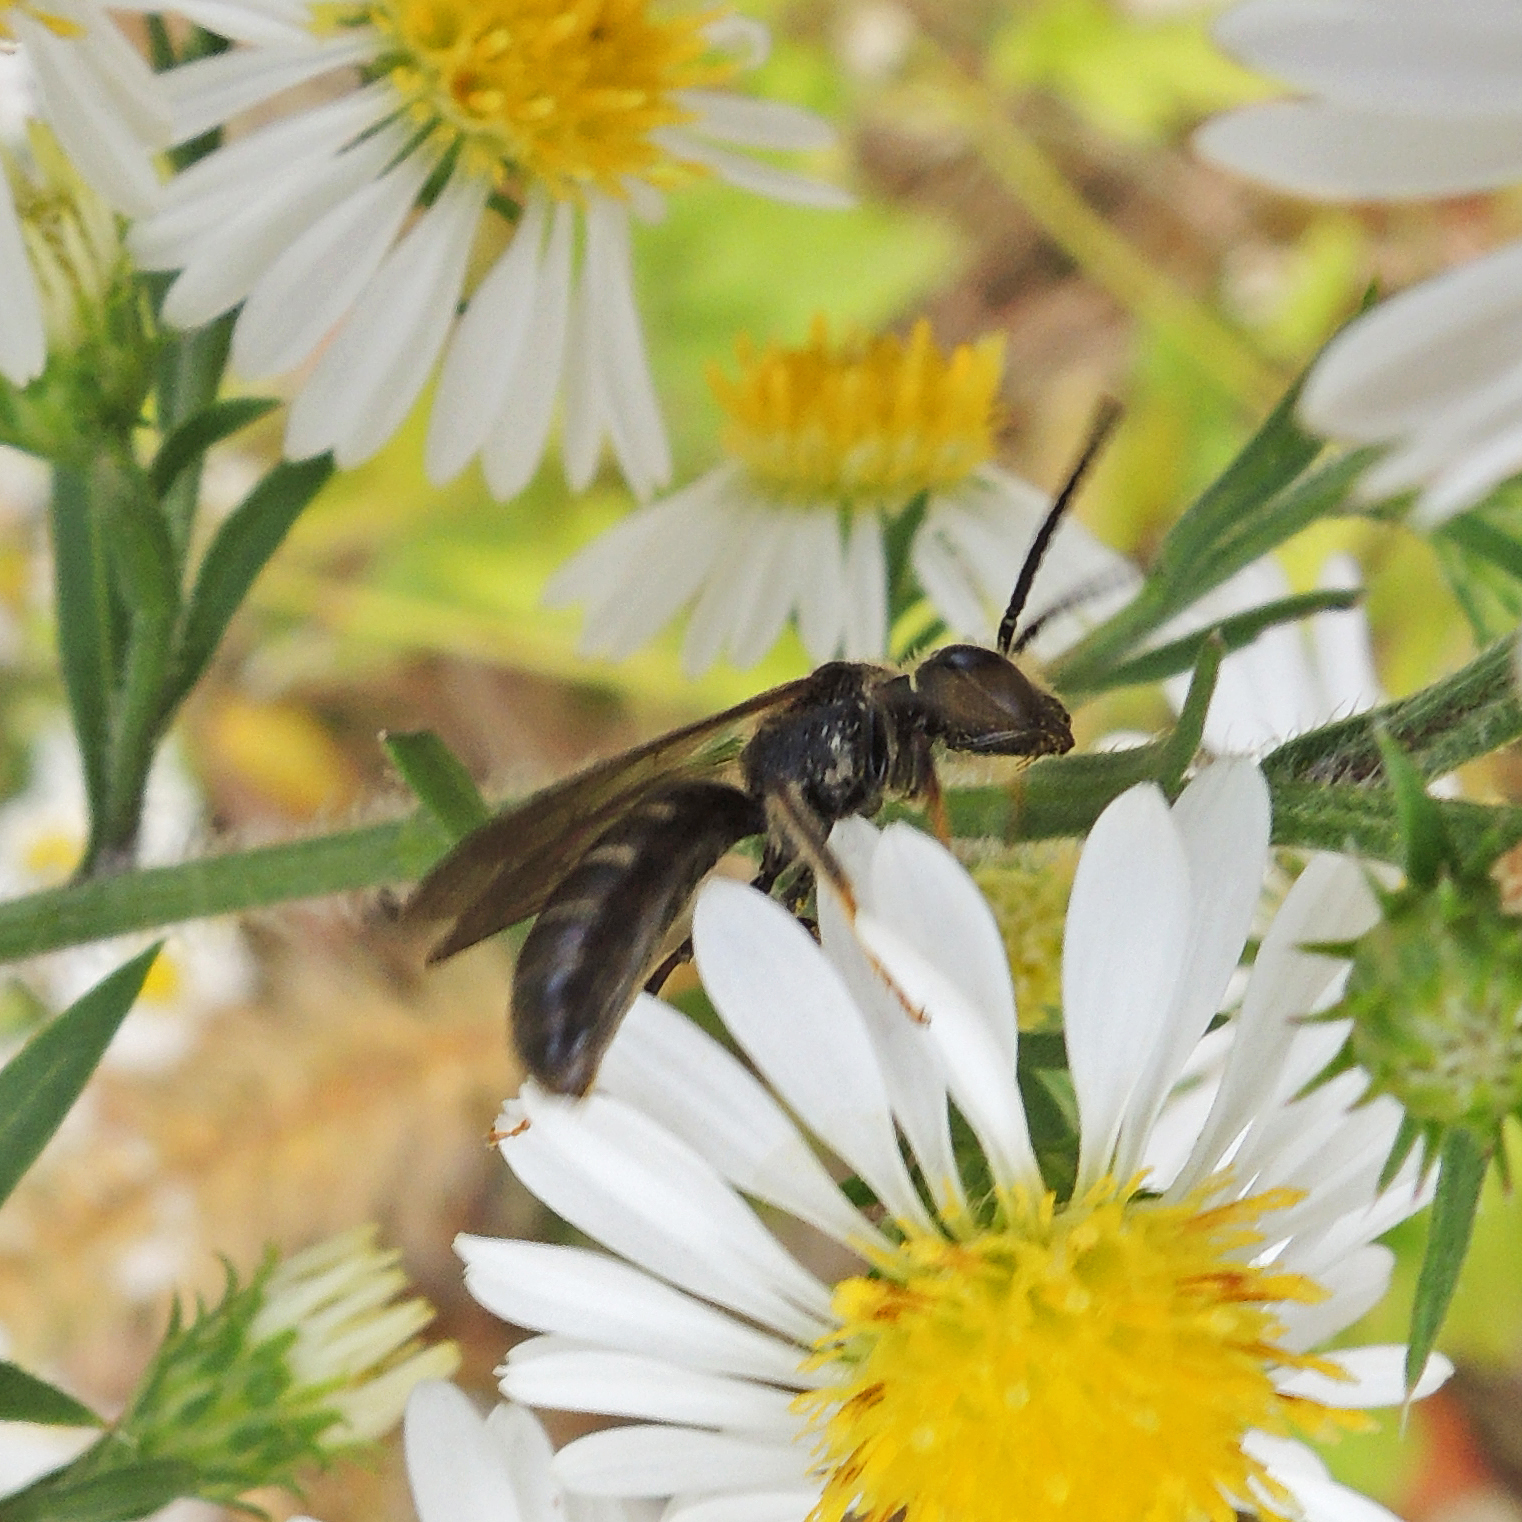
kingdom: Animalia
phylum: Arthropoda
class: Insecta
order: Hymenoptera
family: Halictidae
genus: Lasioglossum
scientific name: Lasioglossum fuscipenne
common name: Brown-winged sweat bee
